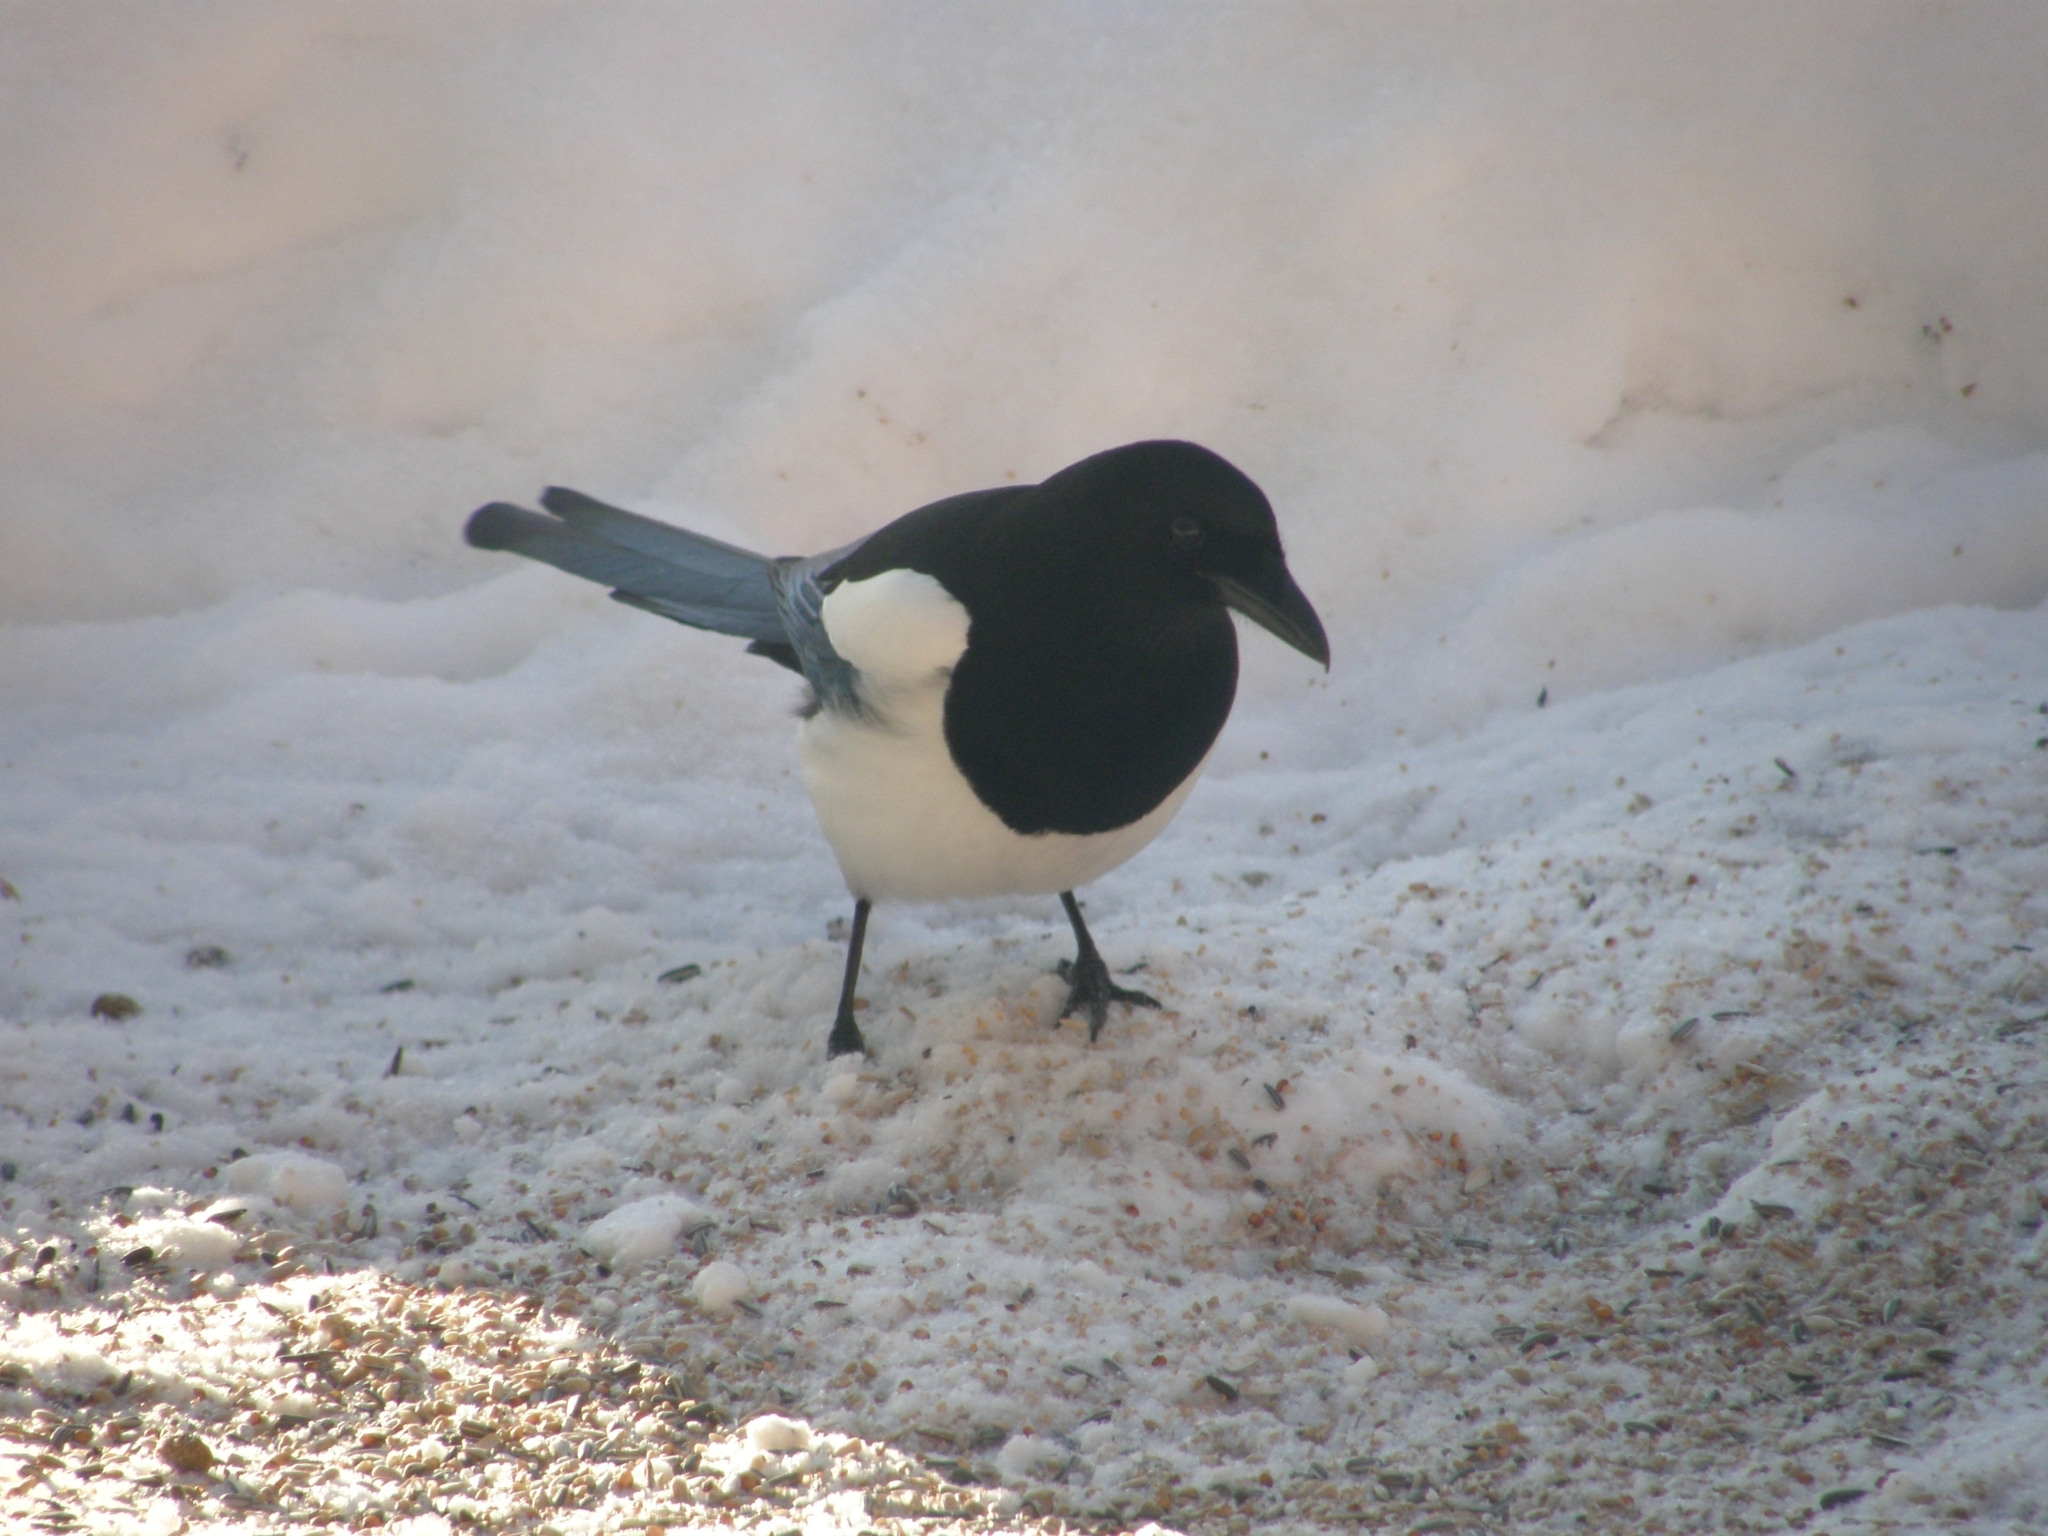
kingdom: Animalia
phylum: Chordata
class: Aves
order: Passeriformes
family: Corvidae
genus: Pica
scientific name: Pica pica
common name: Eurasian magpie
